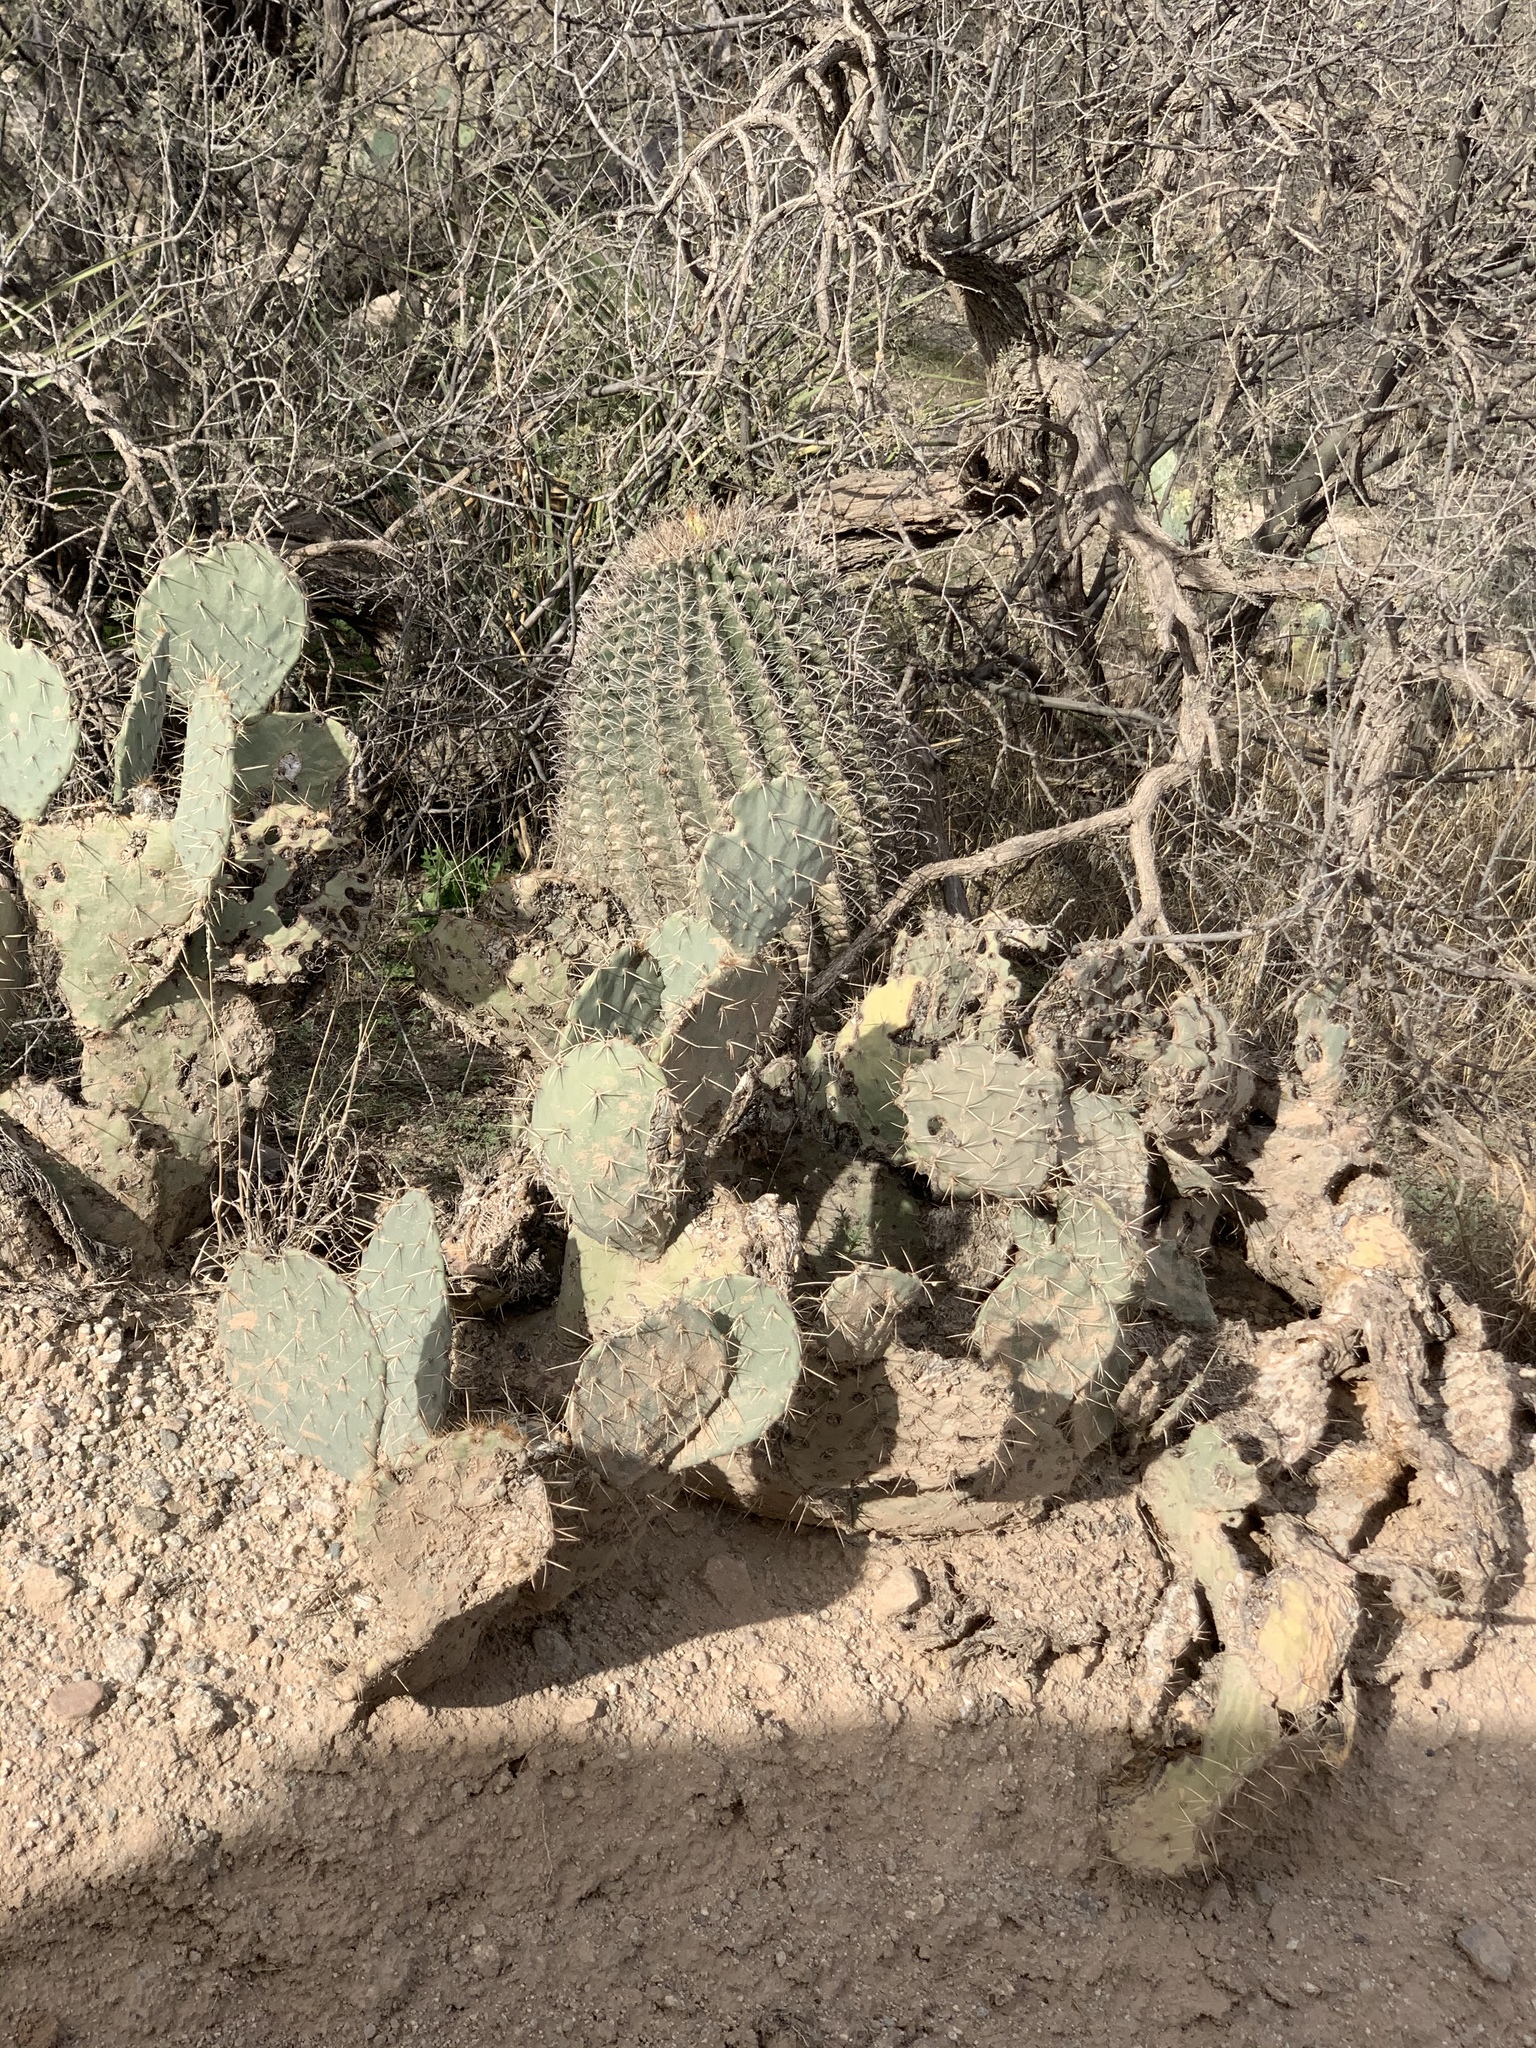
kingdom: Plantae
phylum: Tracheophyta
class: Magnoliopsida
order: Caryophyllales
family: Cactaceae
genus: Ferocactus
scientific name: Ferocactus wislizeni
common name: Candy barrel cactus
